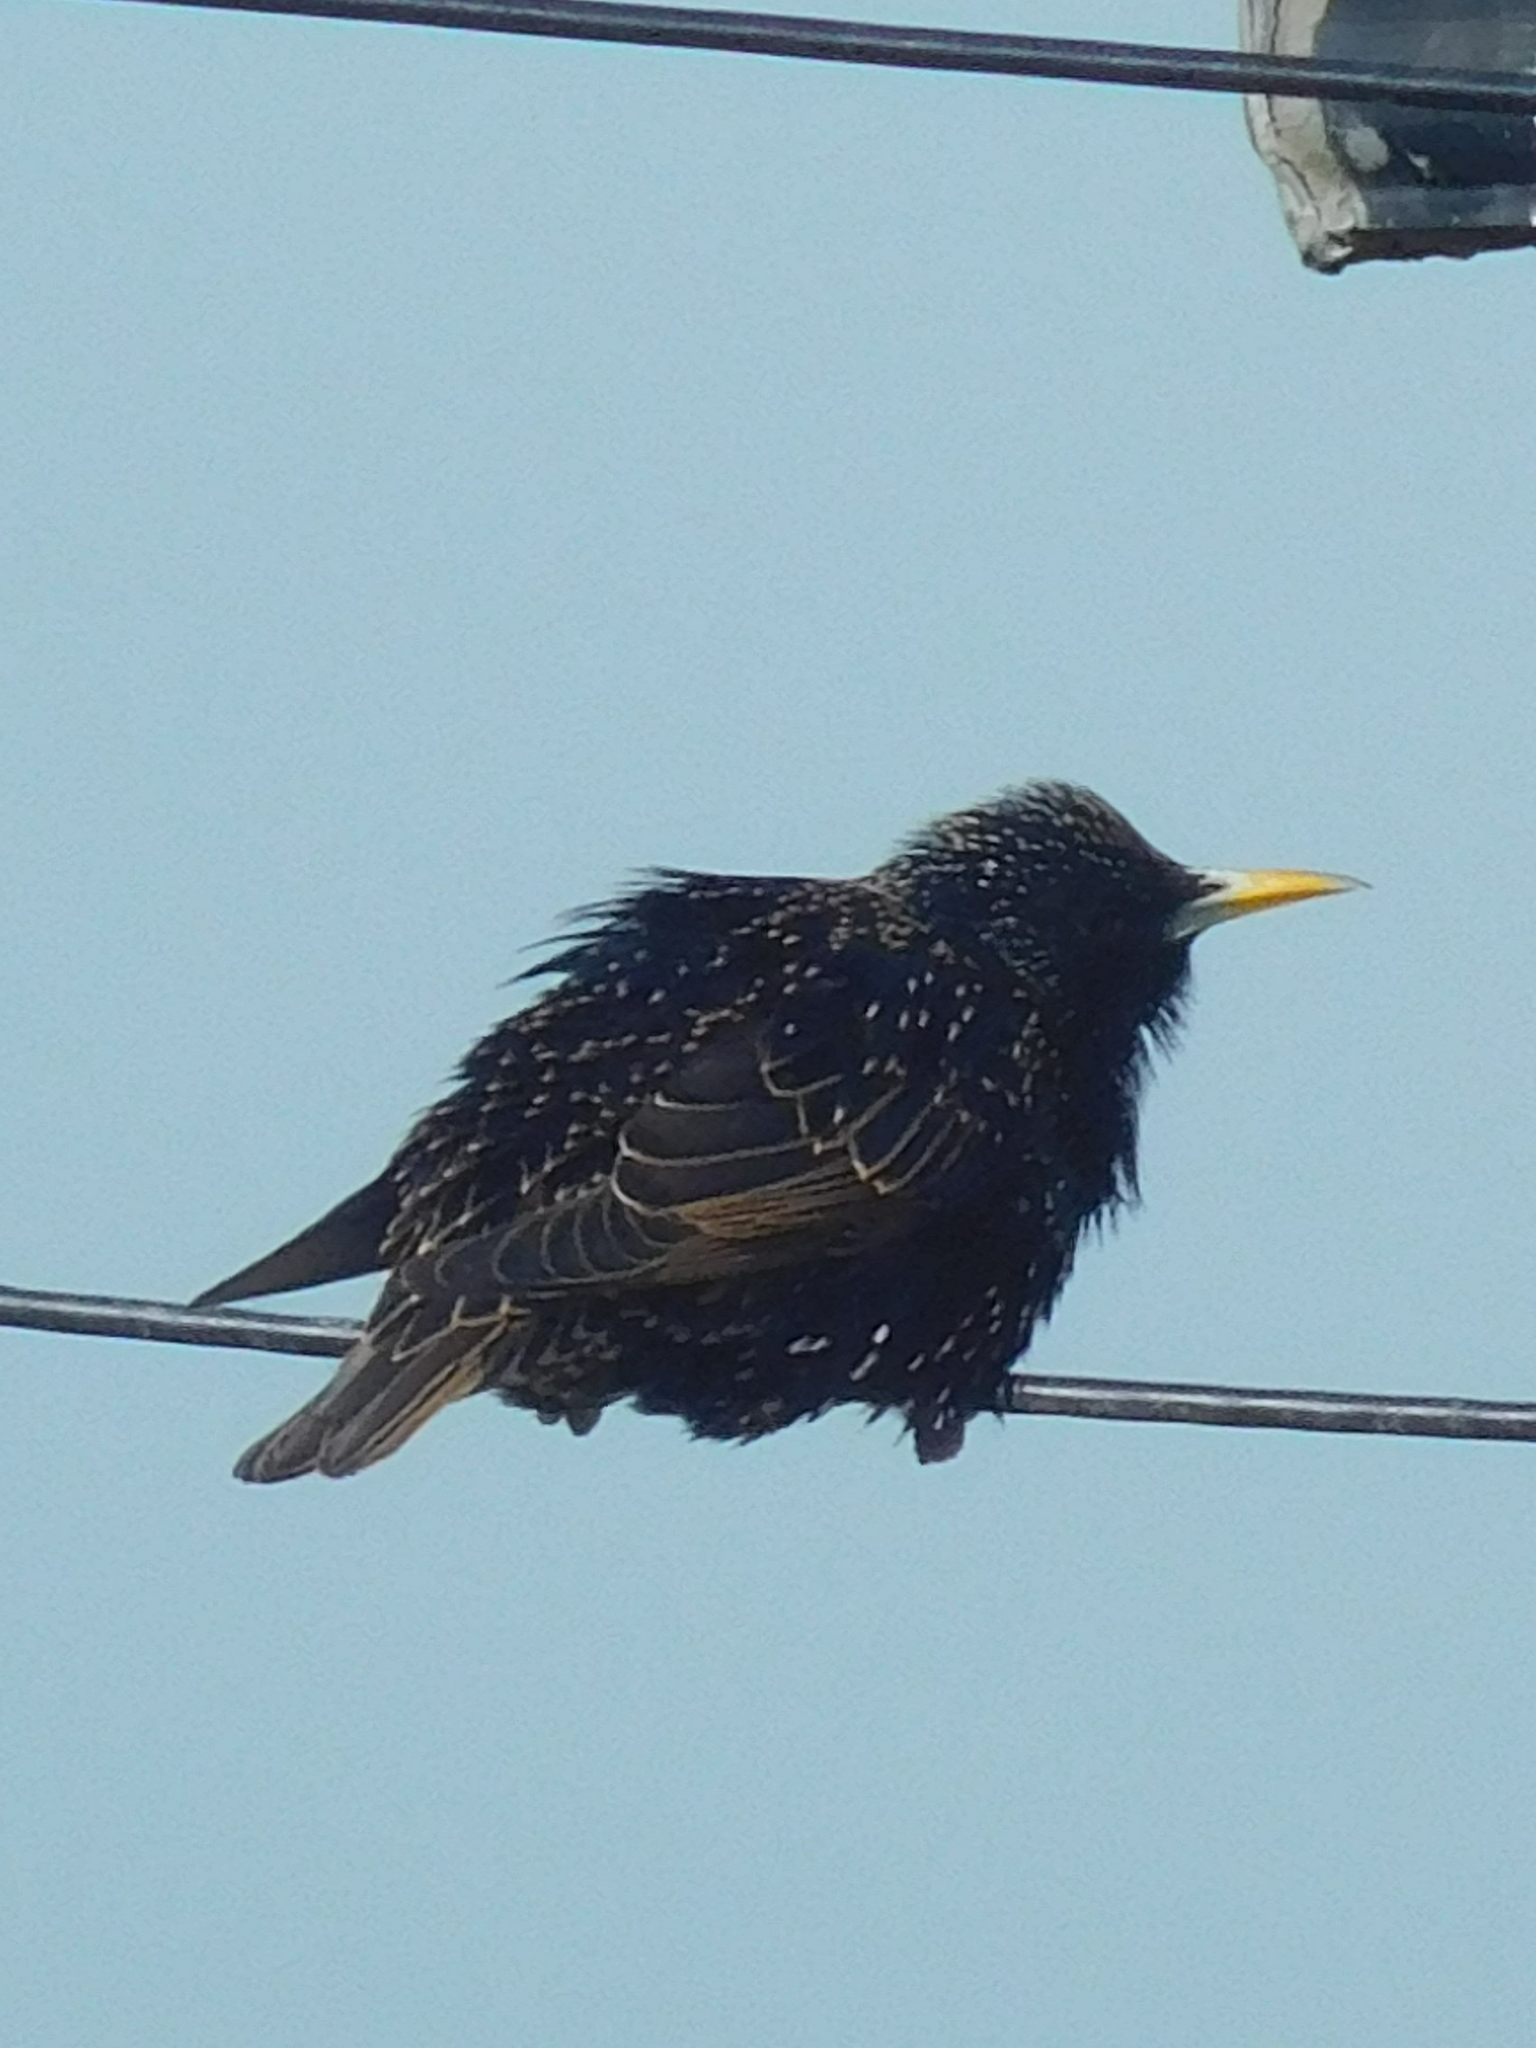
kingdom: Animalia
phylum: Chordata
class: Aves
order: Passeriformes
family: Sturnidae
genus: Sturnus
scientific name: Sturnus vulgaris
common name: Common starling
